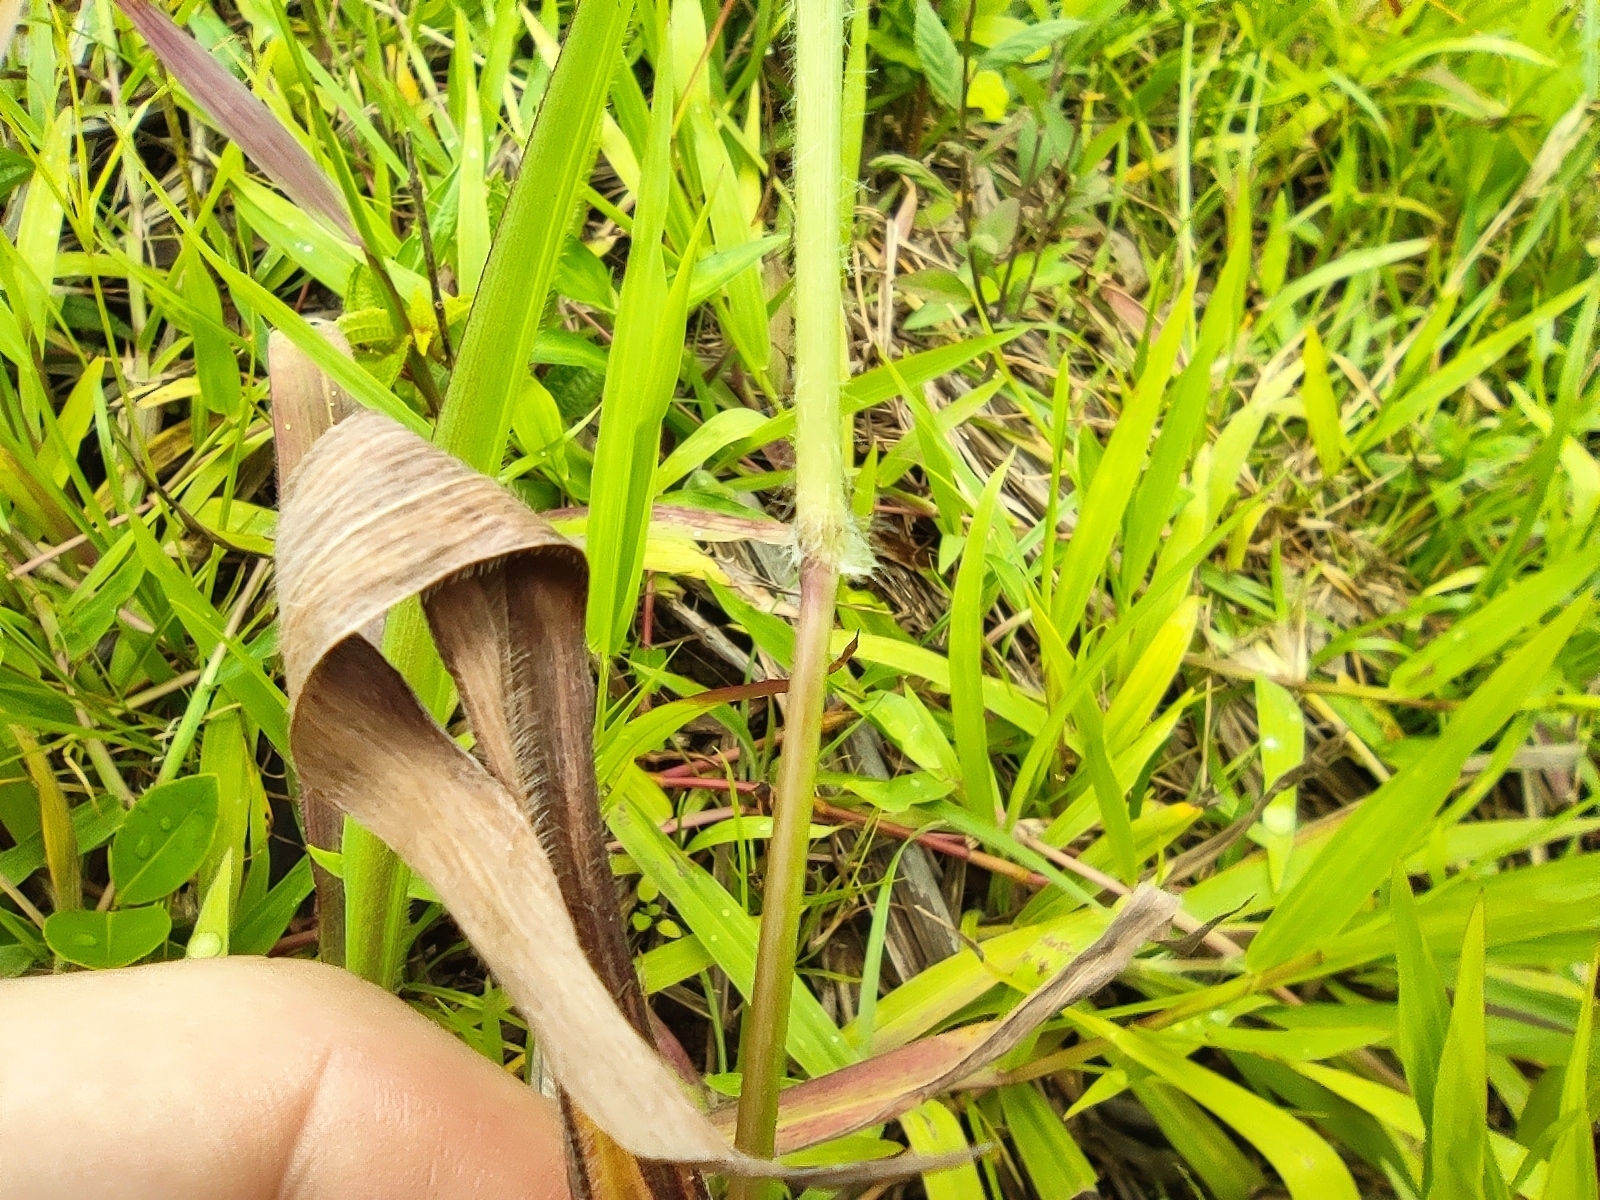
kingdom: Plantae
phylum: Tracheophyta
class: Liliopsida
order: Poales
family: Poaceae
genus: Paspalum
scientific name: Paspalum paniculatum
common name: Arrocillo
